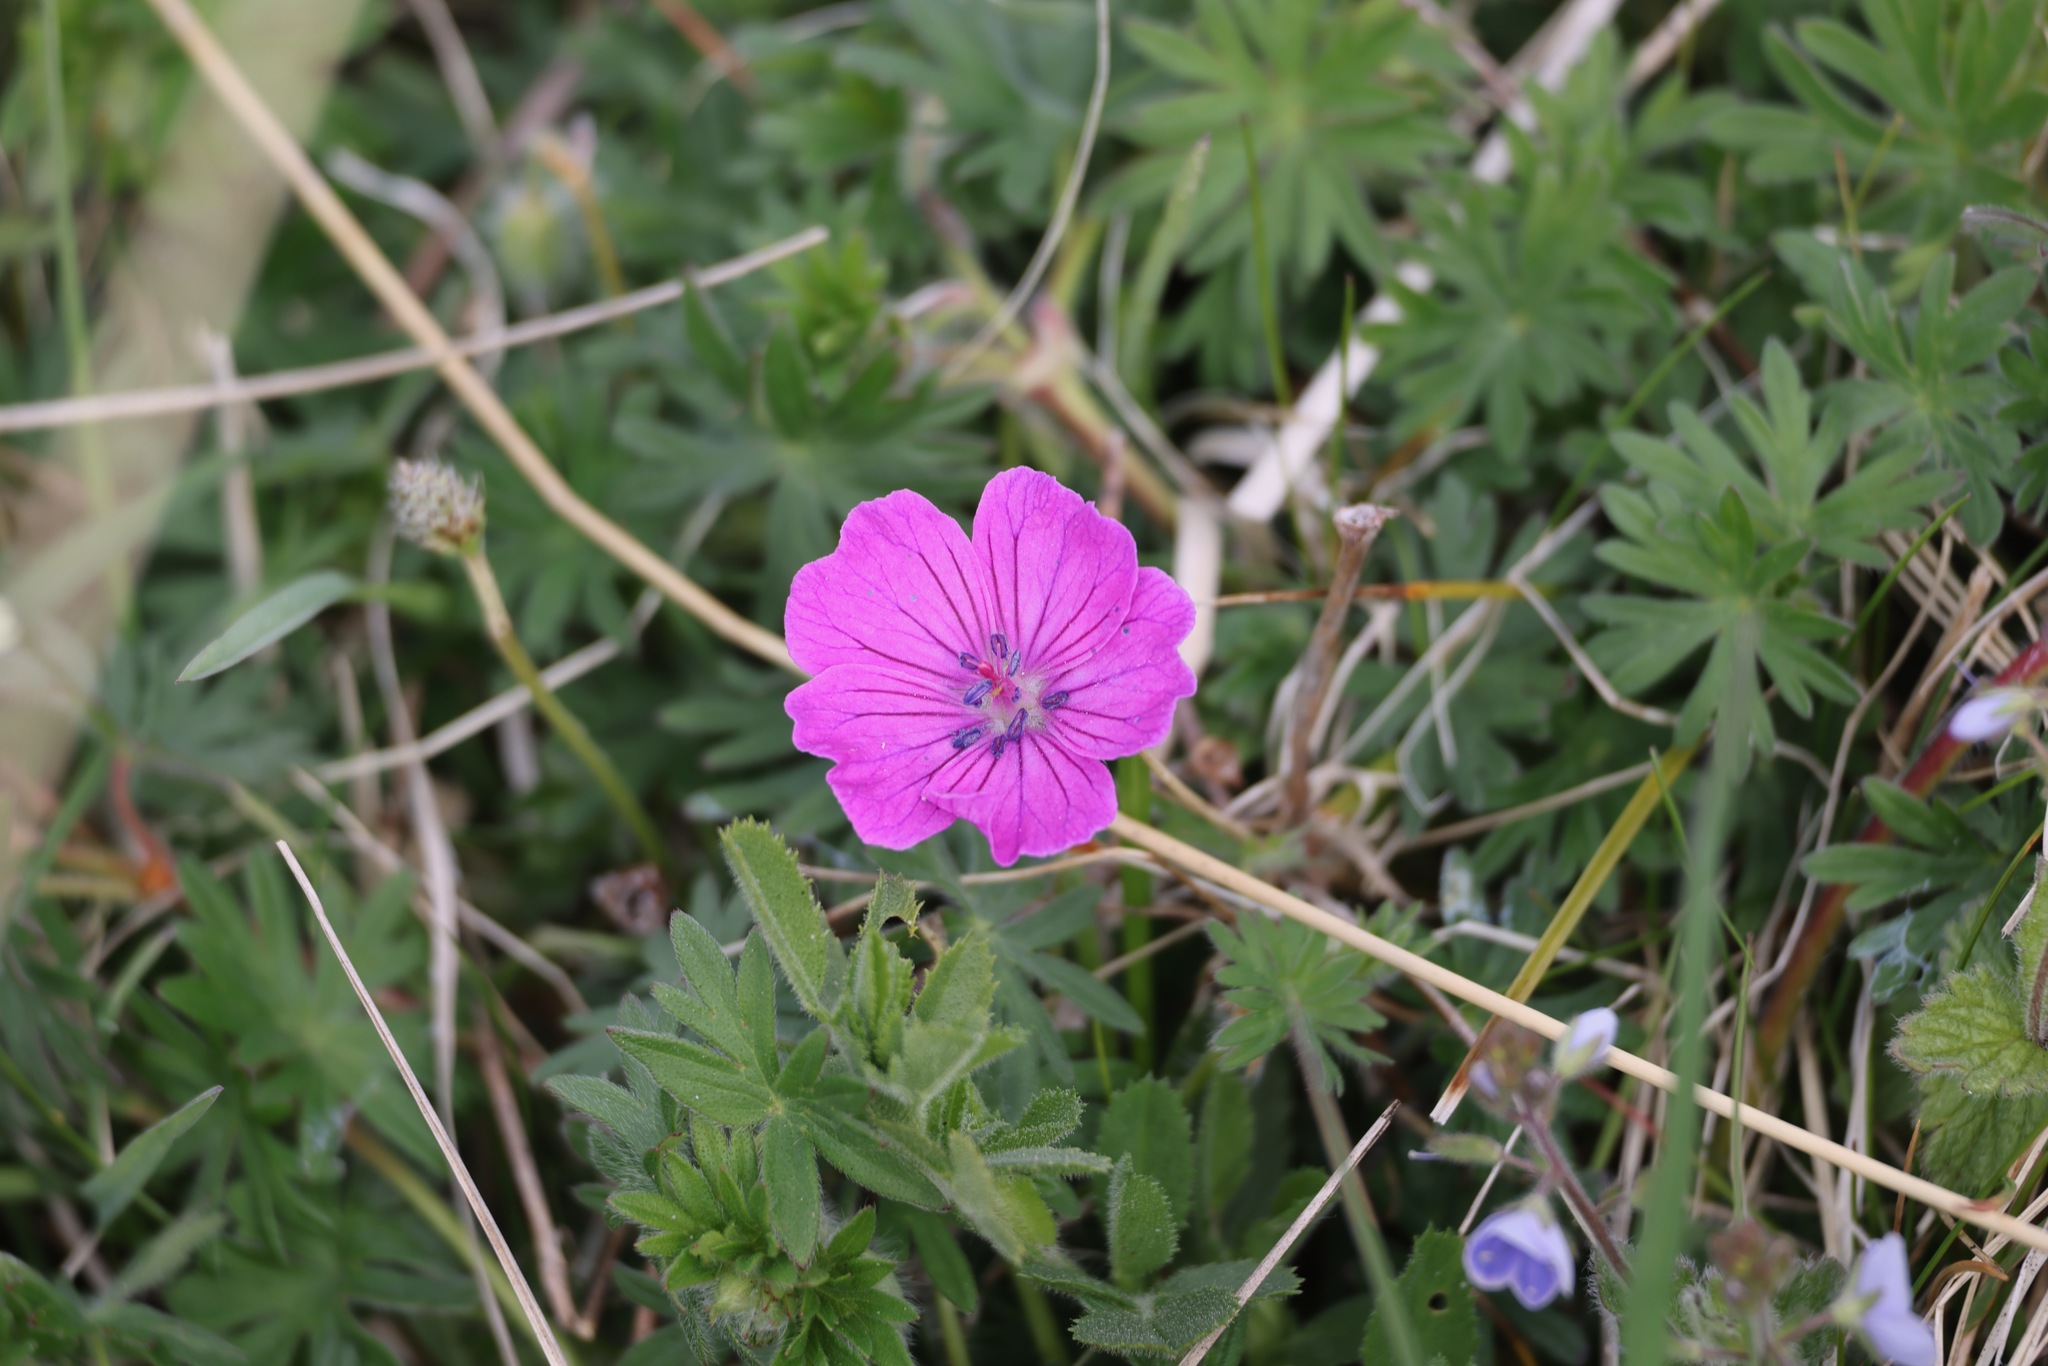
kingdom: Plantae
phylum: Tracheophyta
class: Magnoliopsida
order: Geraniales
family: Geraniaceae
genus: Geranium
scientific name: Geranium sanguineum
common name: Bloody crane's-bill
